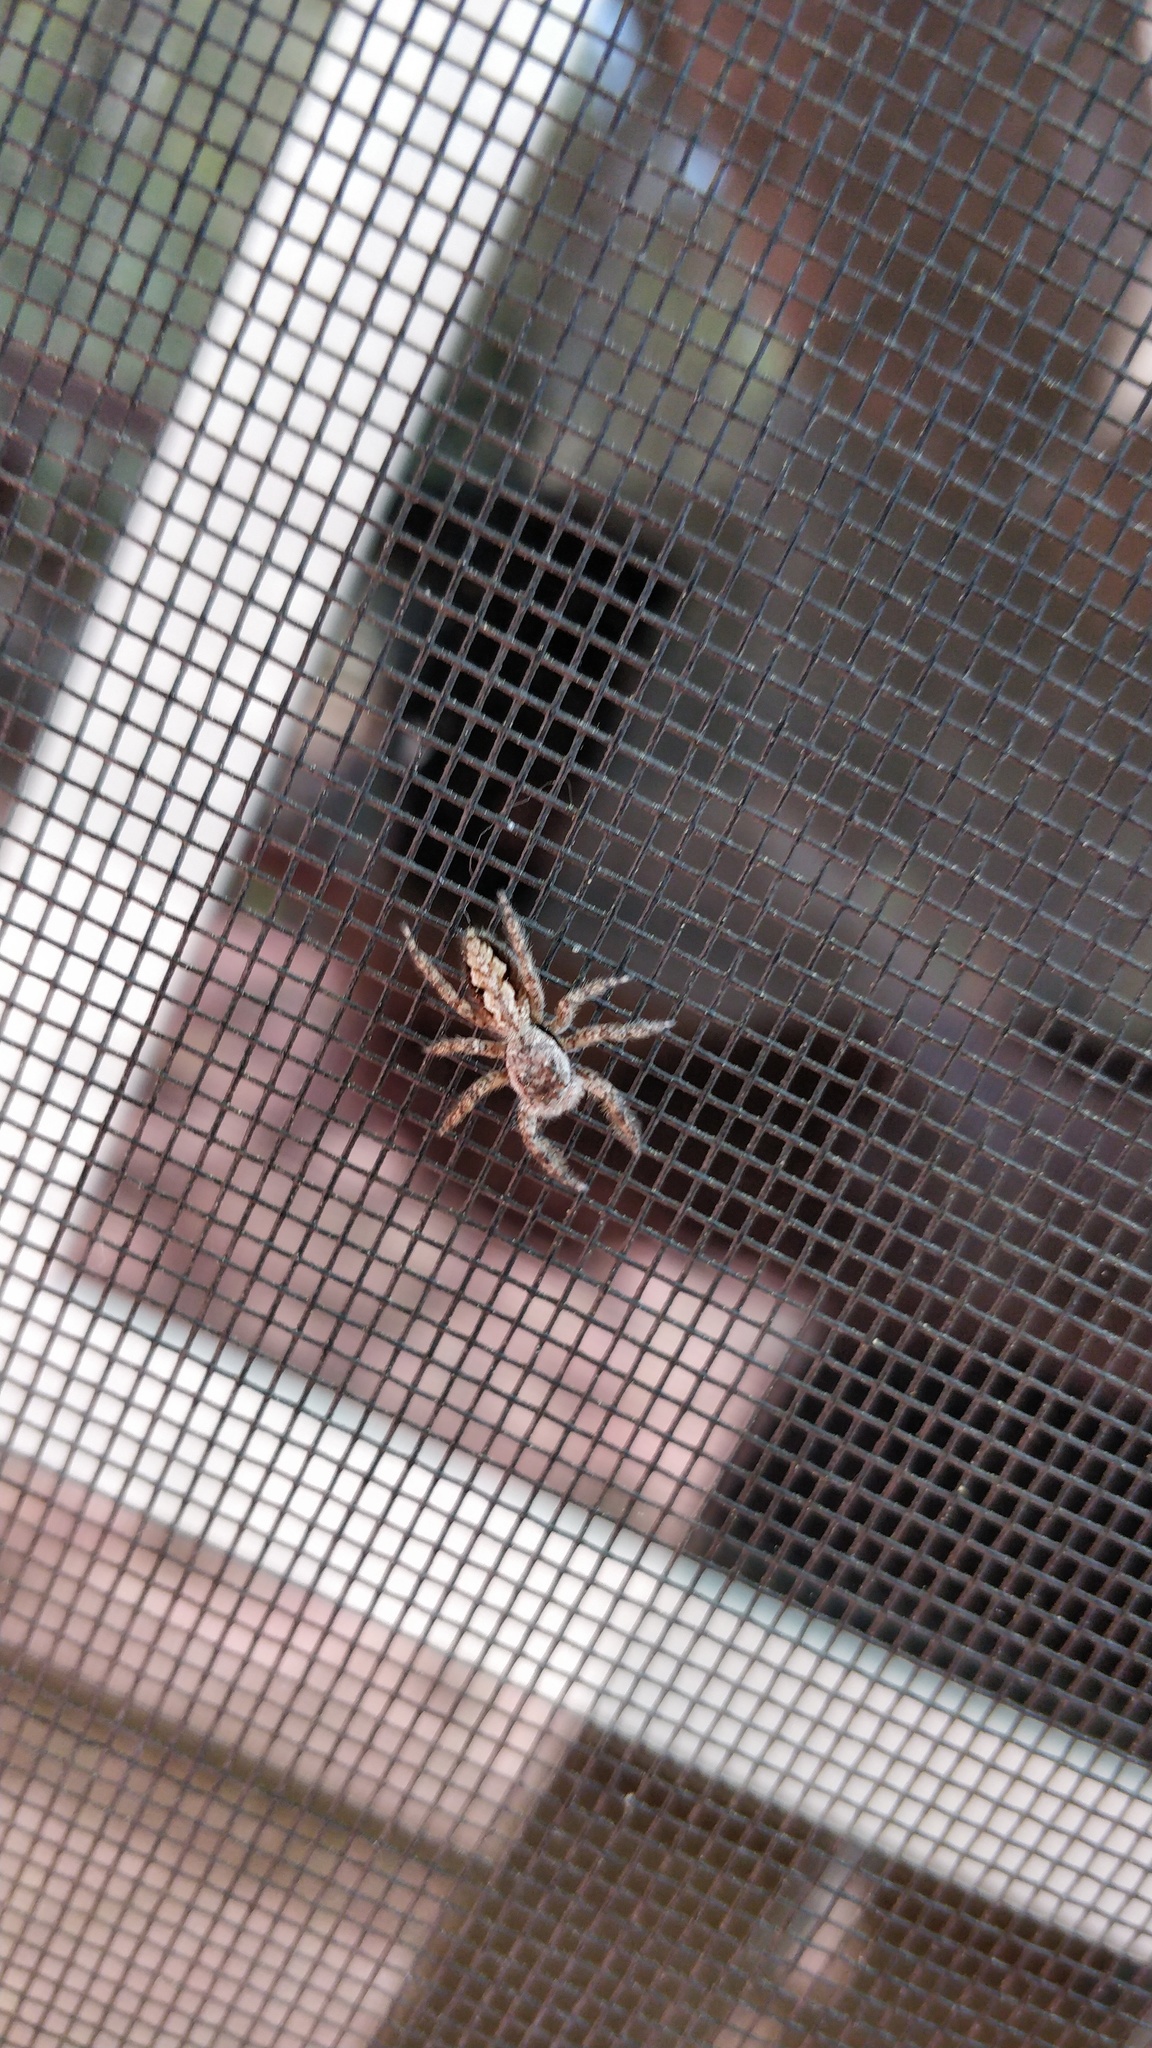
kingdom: Animalia
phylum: Arthropoda
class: Arachnida
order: Araneae
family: Salticidae
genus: Platycryptus
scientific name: Platycryptus undatus
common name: Tan jumping spider
